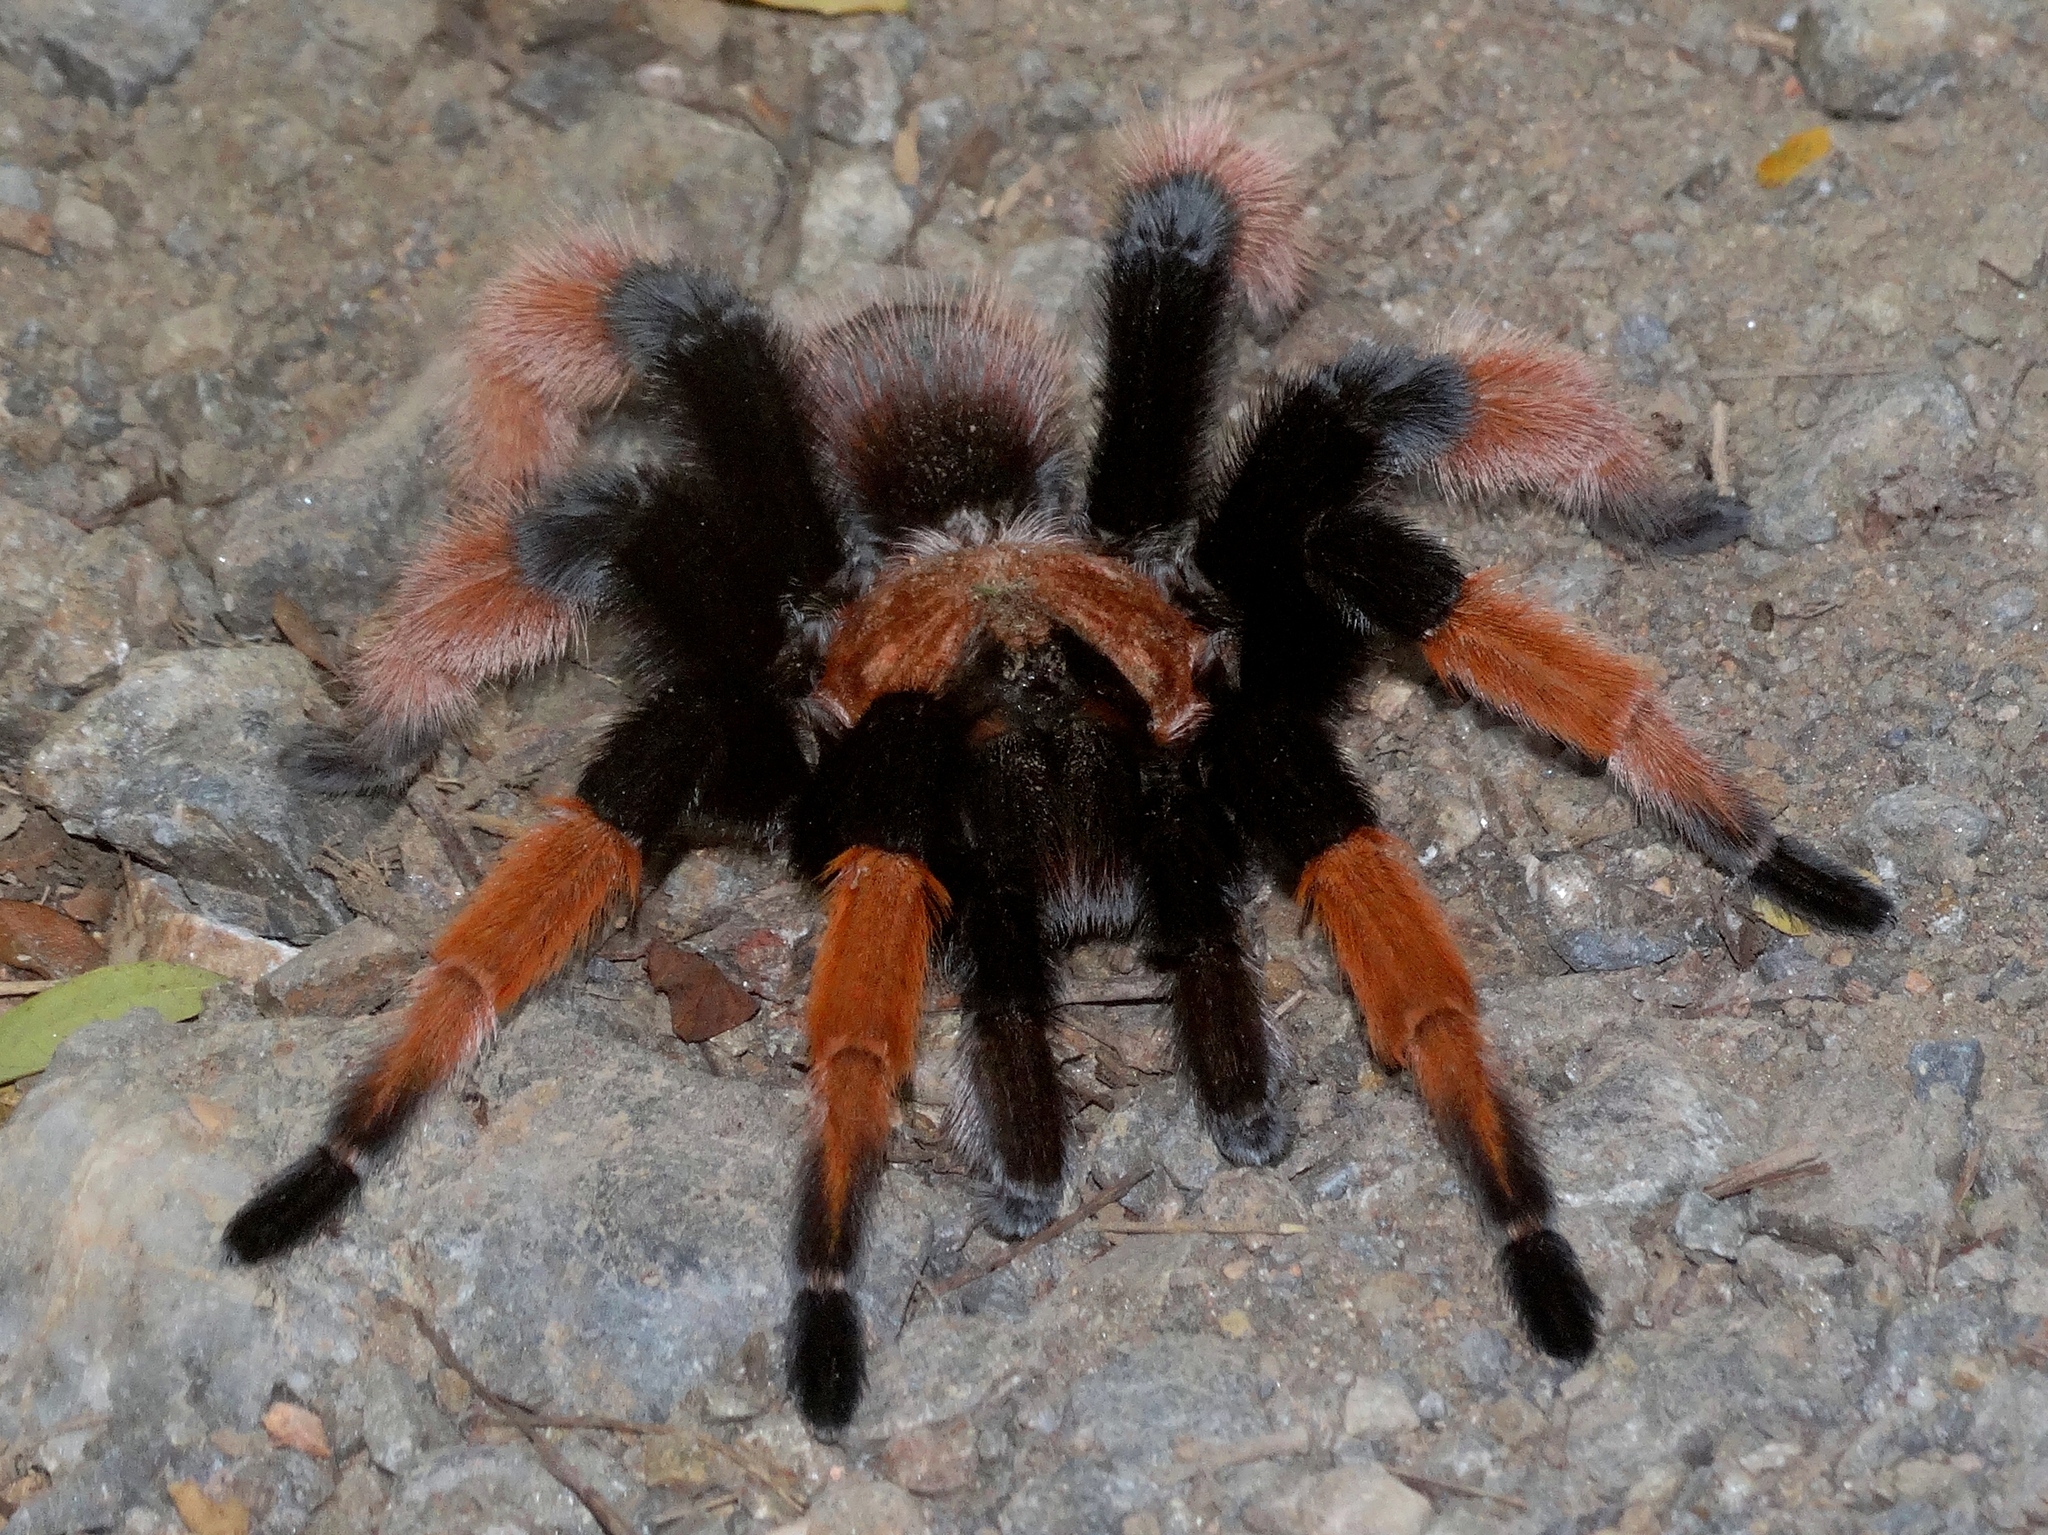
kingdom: Animalia
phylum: Arthropoda
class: Arachnida
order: Araneae
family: Theraphosidae
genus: Brachypelma
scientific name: Brachypelma emilia
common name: Mexican redleg
